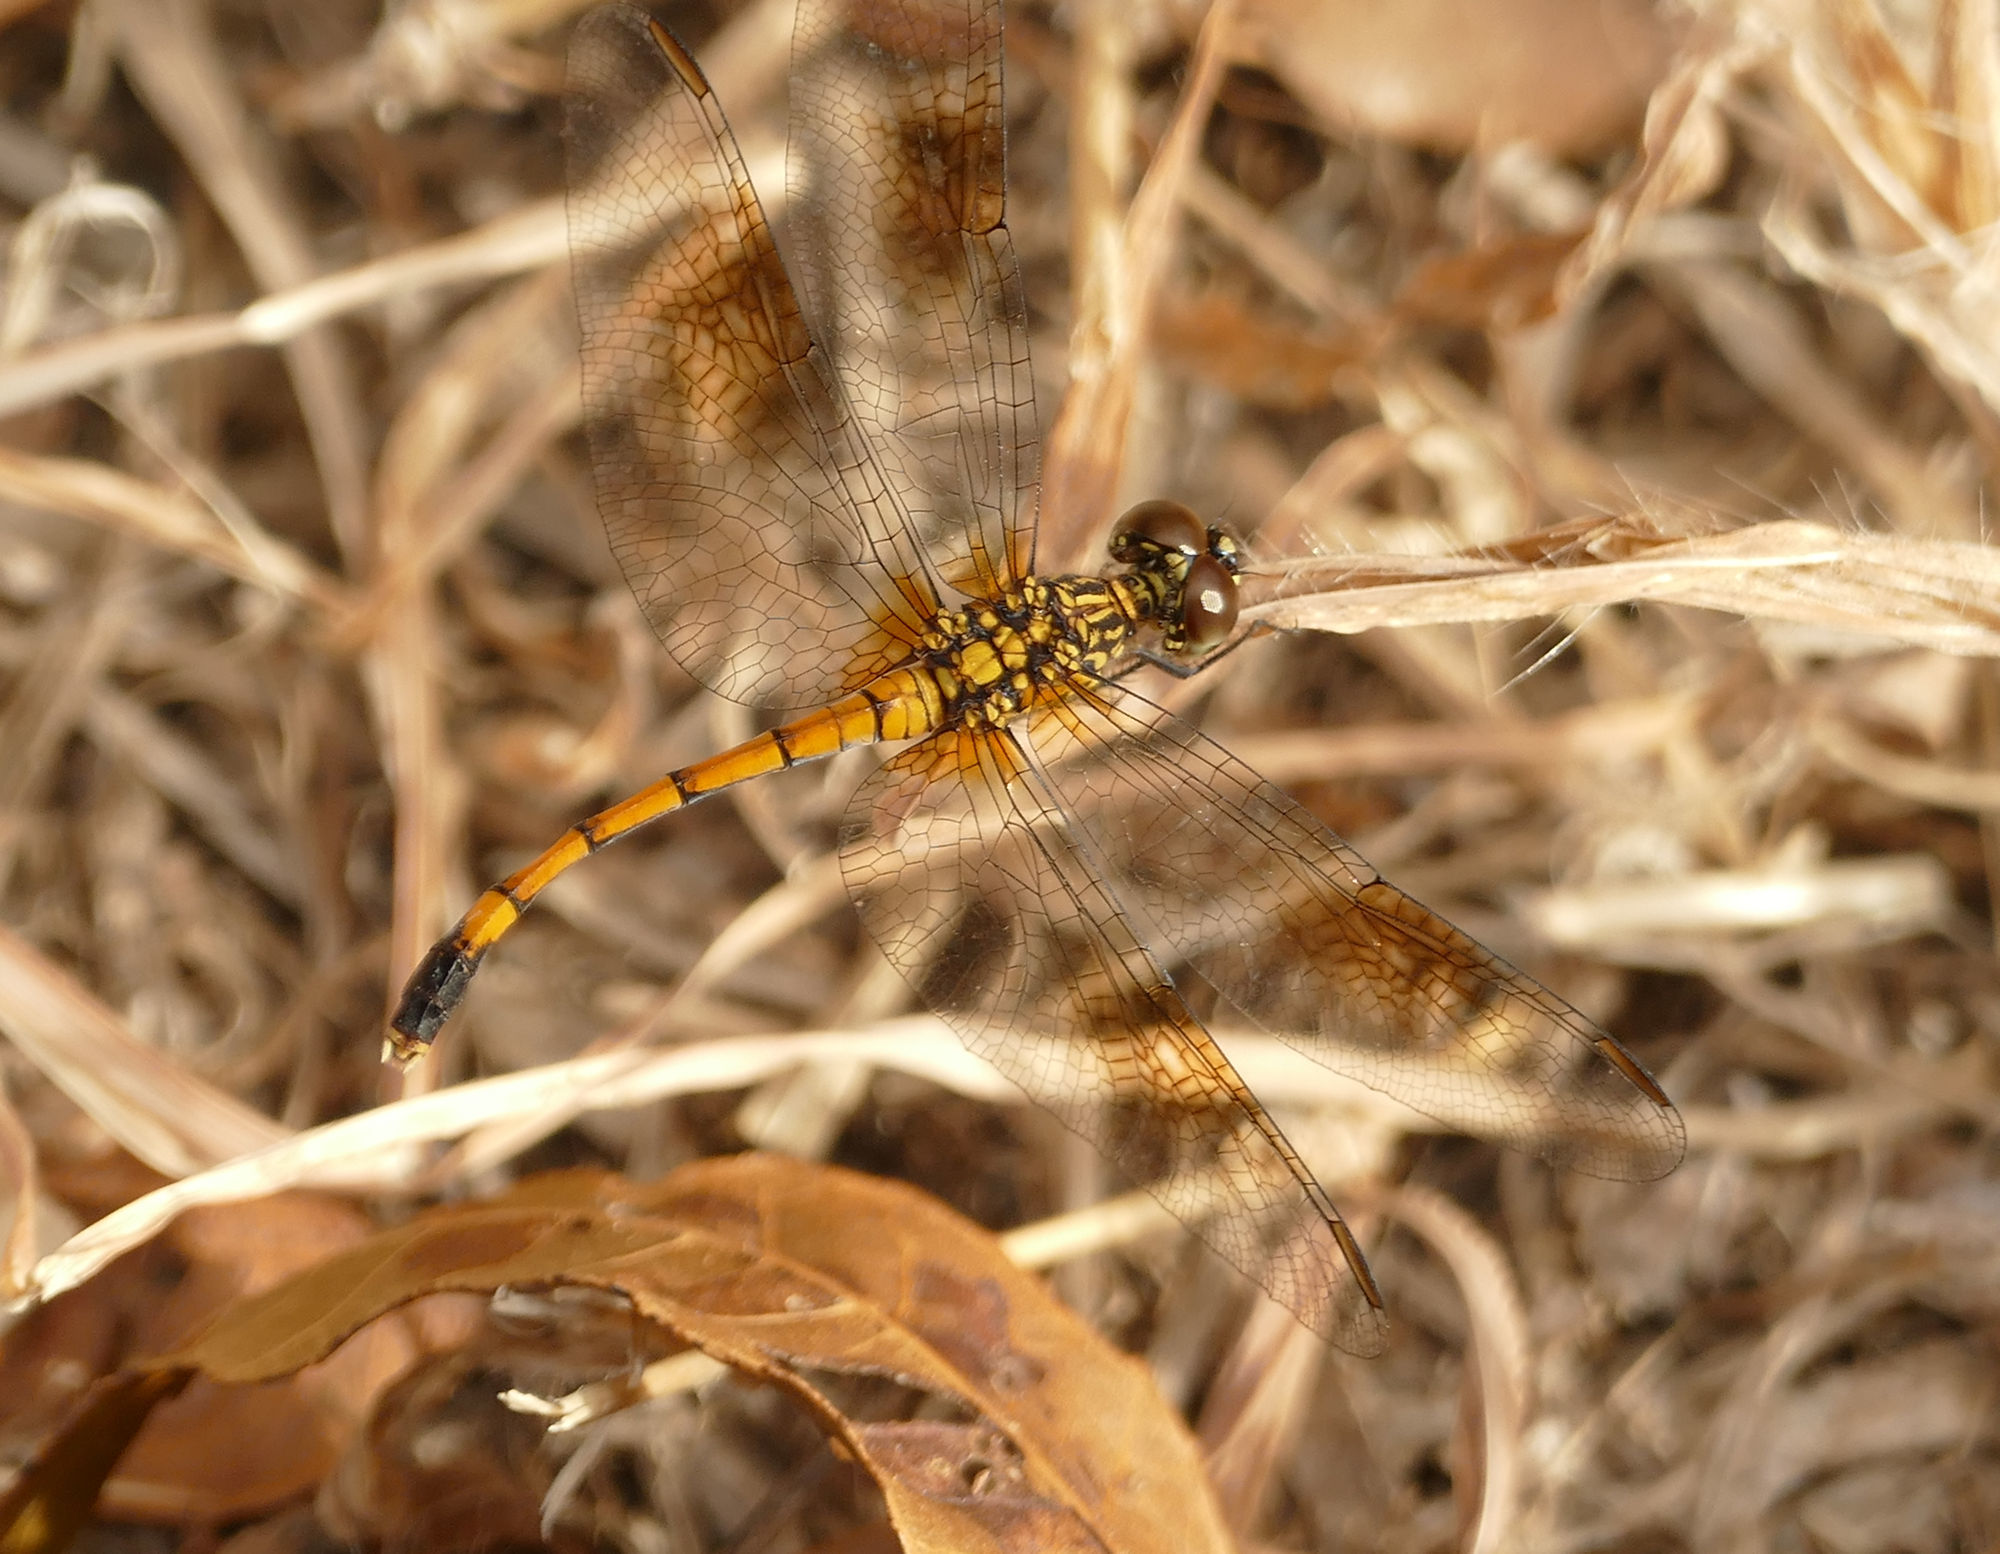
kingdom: Animalia
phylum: Arthropoda
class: Insecta
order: Odonata
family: Libellulidae
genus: Erythrodiplax
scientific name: Erythrodiplax berenice
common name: Seaside dragonlet
